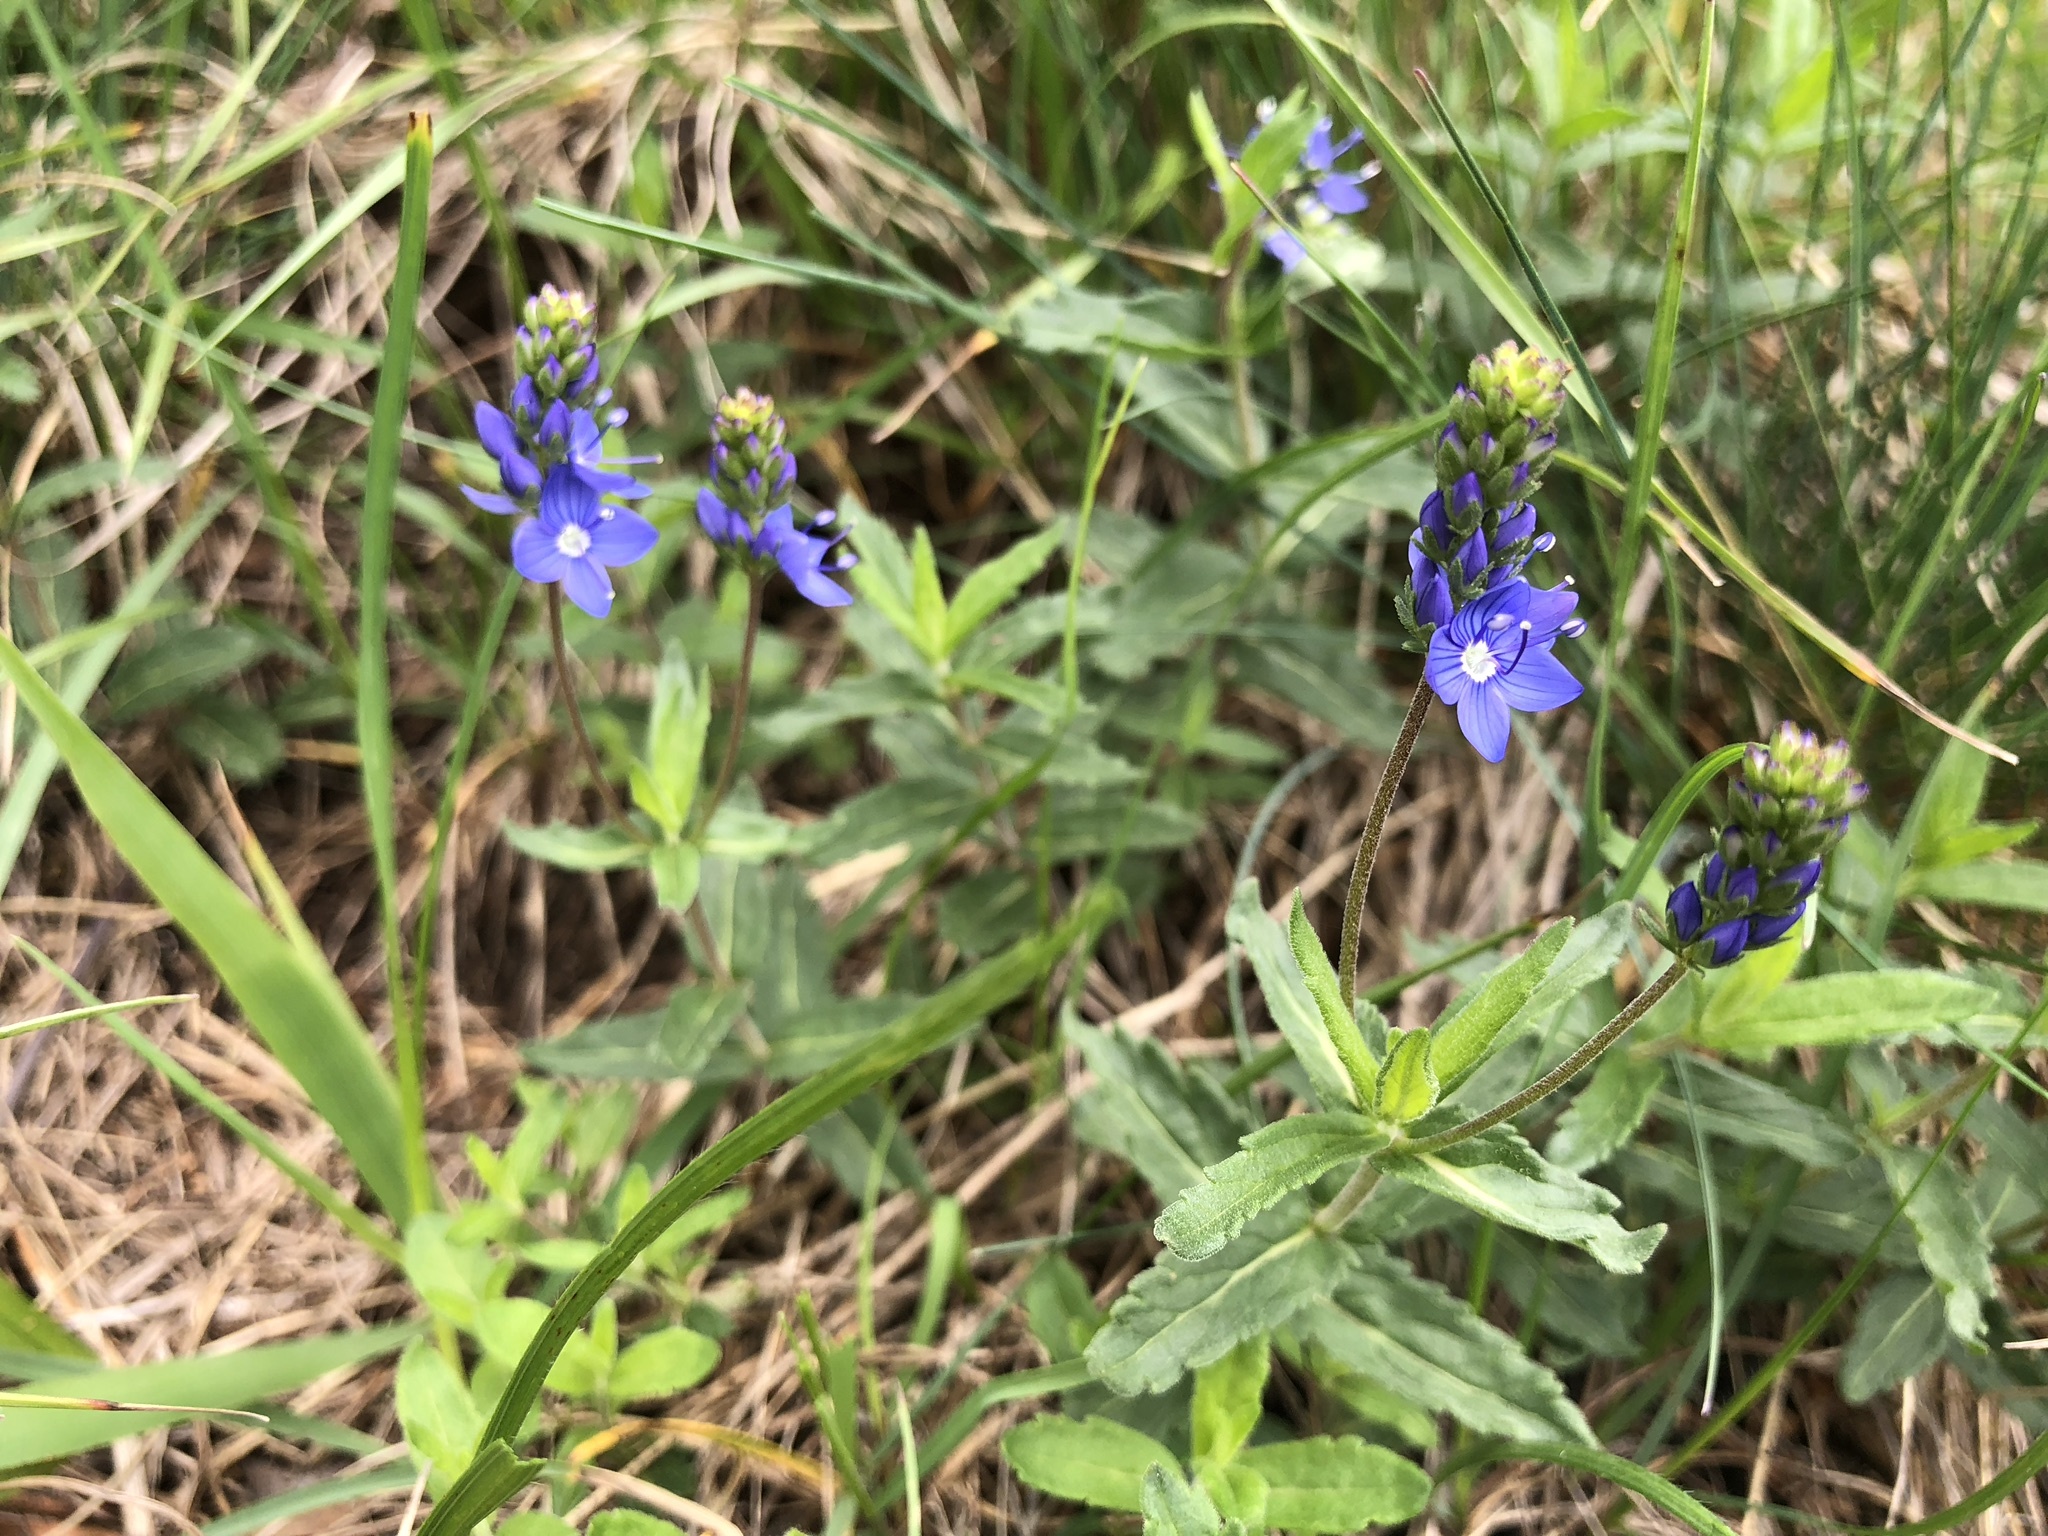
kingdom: Plantae
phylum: Tracheophyta
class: Magnoliopsida
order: Lamiales
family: Plantaginaceae
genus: Veronica
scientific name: Veronica teucrium
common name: Large speedwell
